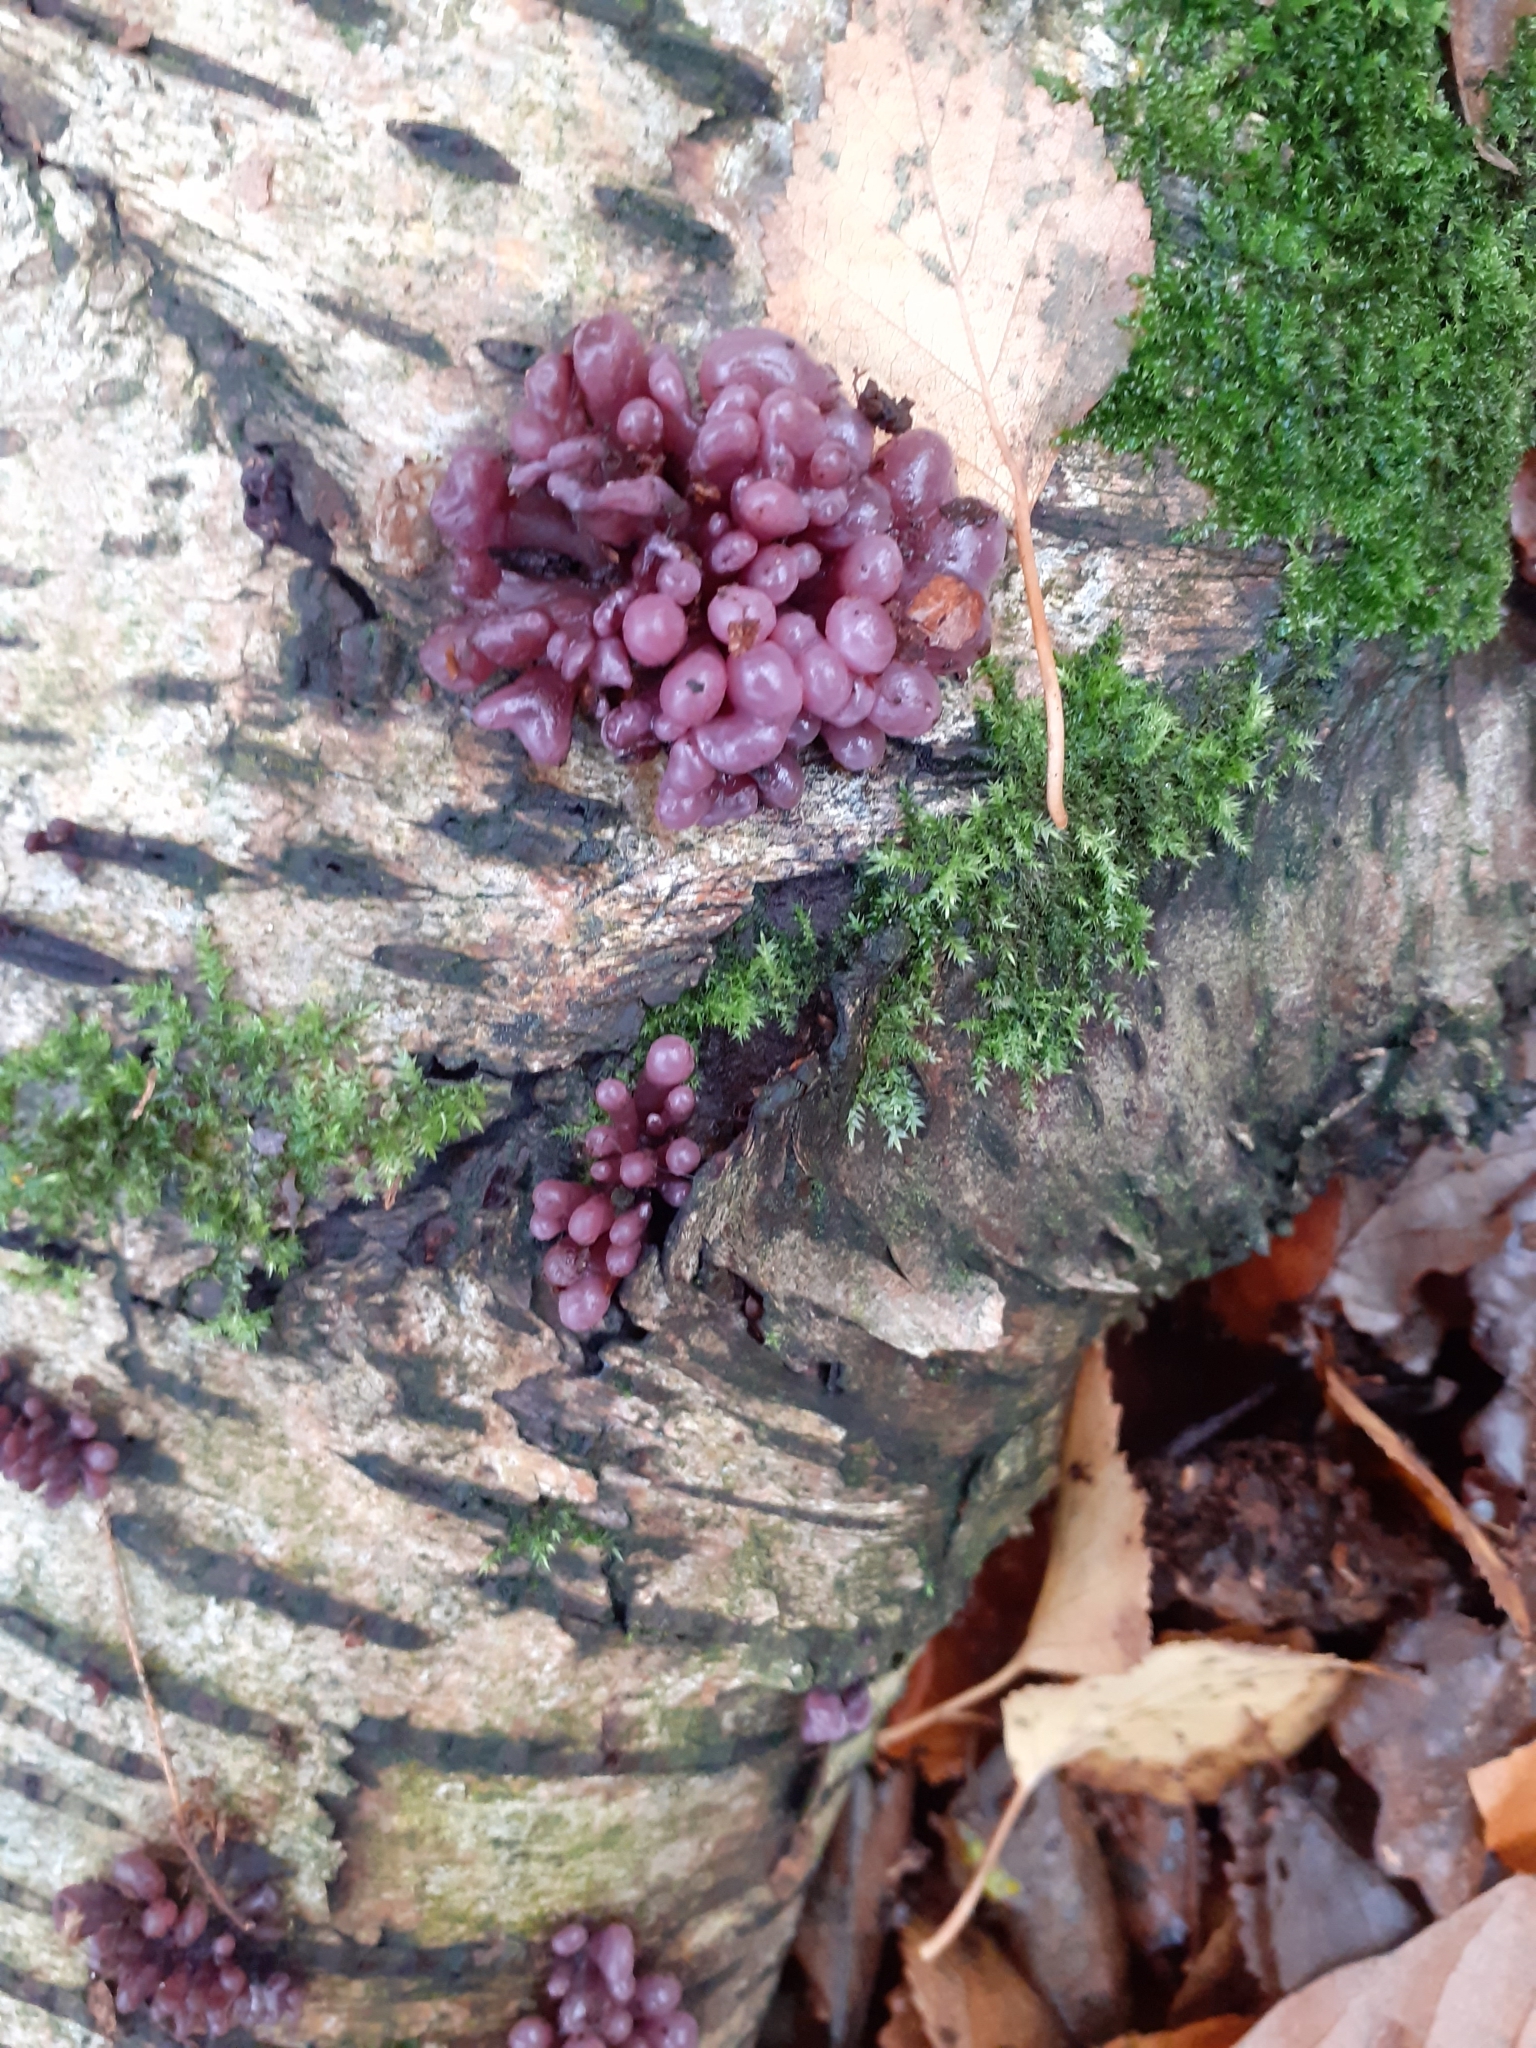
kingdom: Fungi
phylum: Ascomycota
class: Leotiomycetes
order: Helotiales
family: Gelatinodiscaceae
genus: Ascocoryne
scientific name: Ascocoryne sarcoides
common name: Purple jellydisc
